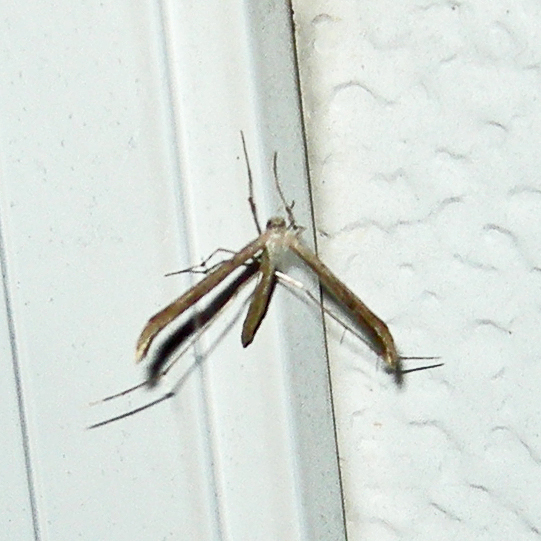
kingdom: Animalia
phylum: Arthropoda
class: Insecta
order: Lepidoptera
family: Pterophoridae
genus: Emmelina
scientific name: Emmelina monodactyla
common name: Common plume
